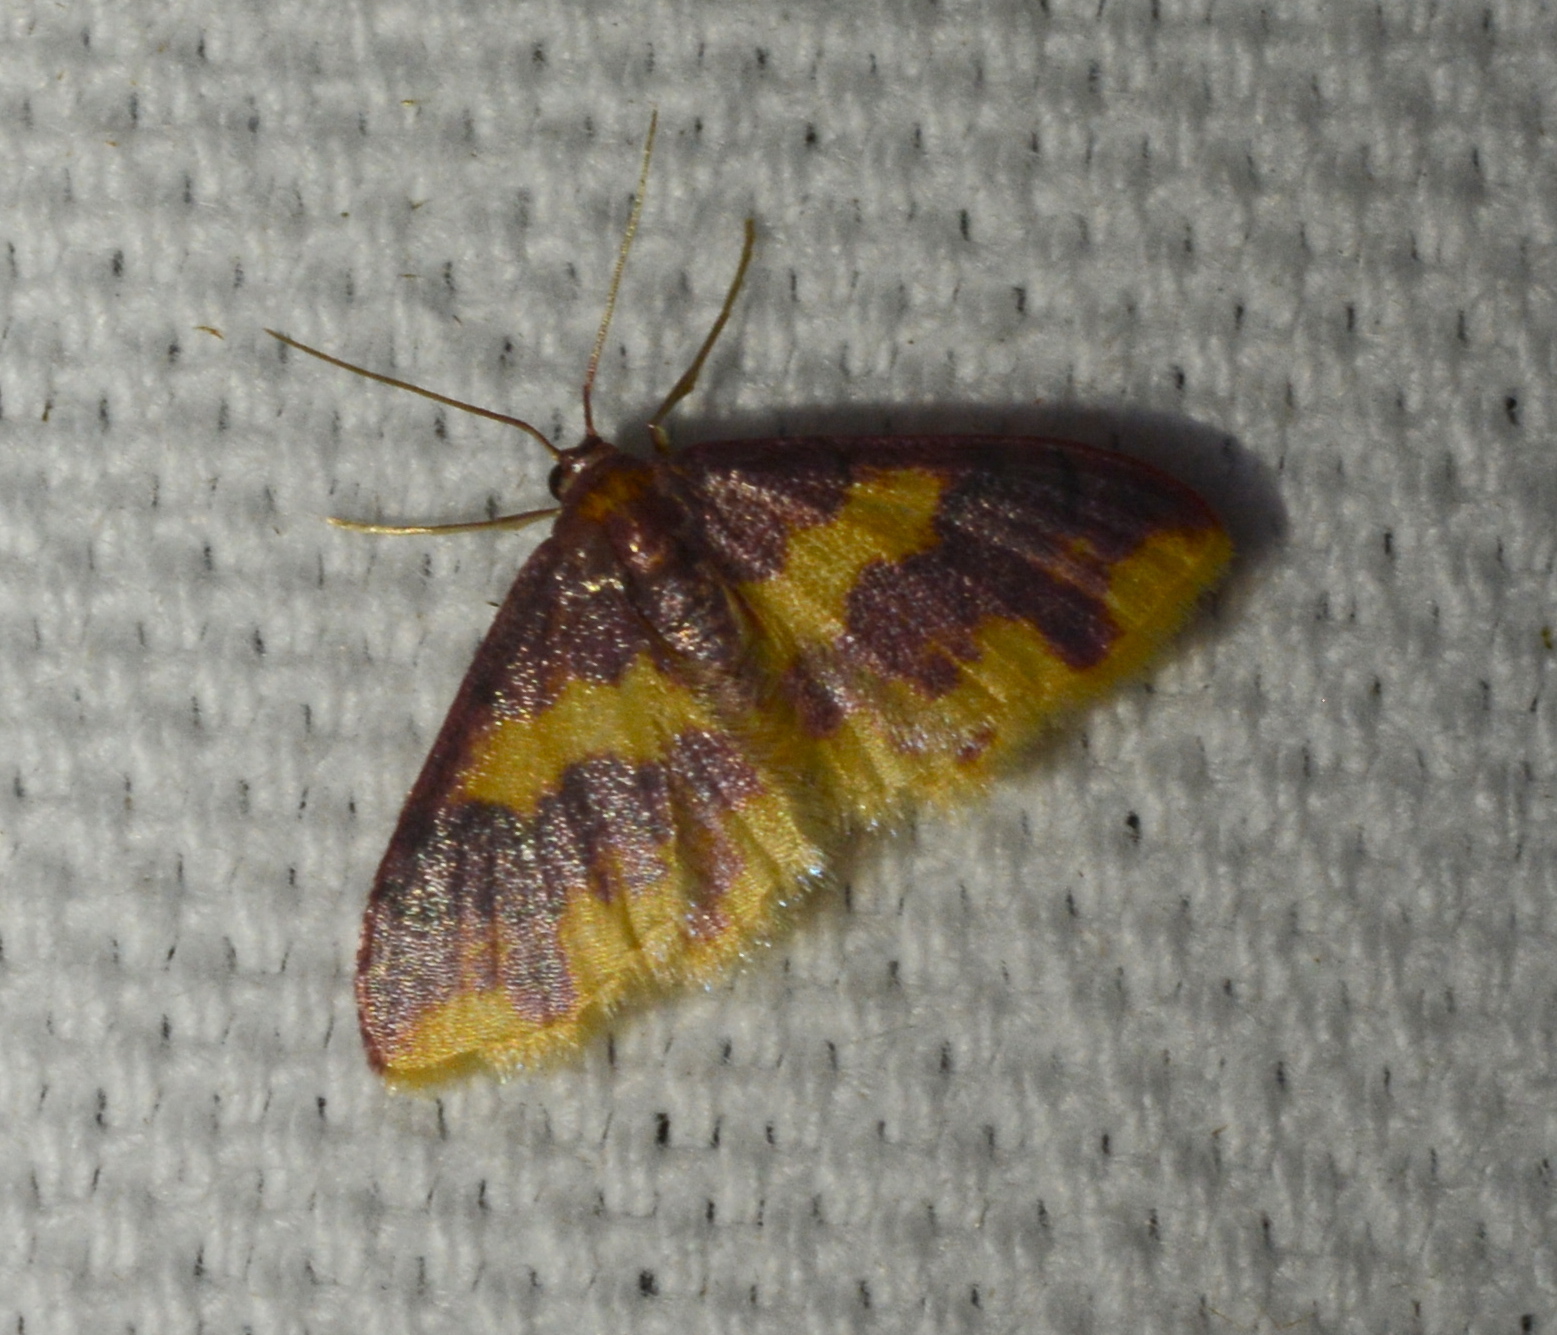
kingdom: Animalia
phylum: Arthropoda
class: Insecta
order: Lepidoptera
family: Geometridae
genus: Lophosis
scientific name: Lophosis labeculata
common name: Stained lophosis moth
